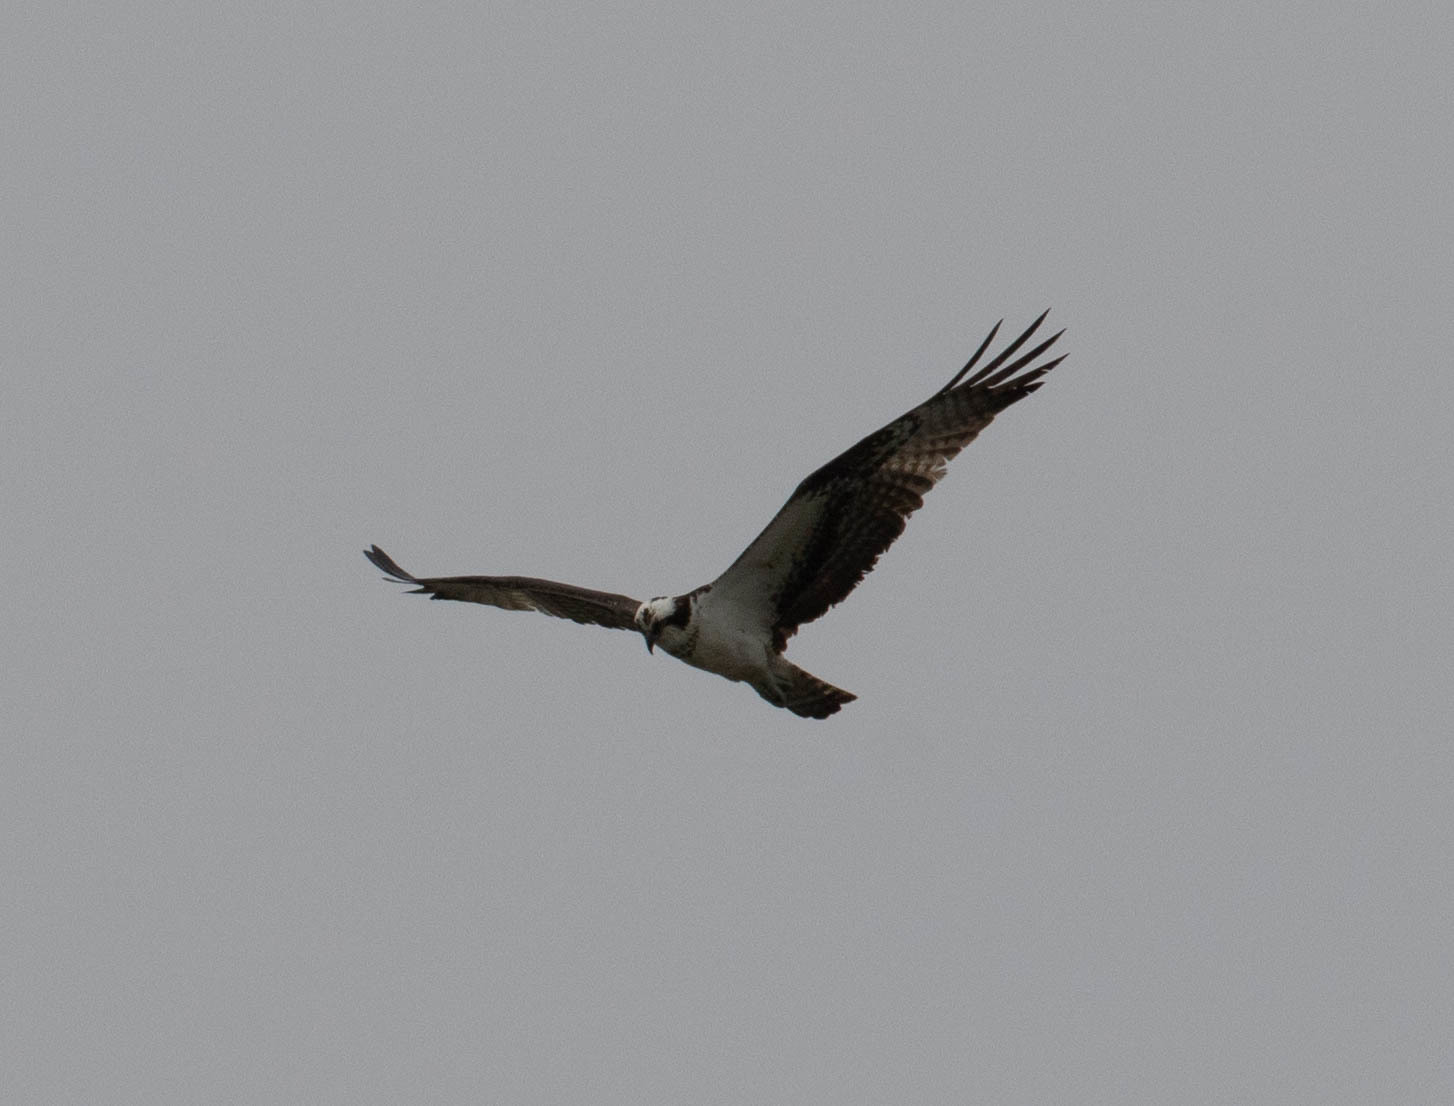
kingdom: Animalia
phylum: Chordata
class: Aves
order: Accipitriformes
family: Pandionidae
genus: Pandion
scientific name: Pandion haliaetus
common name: Osprey
